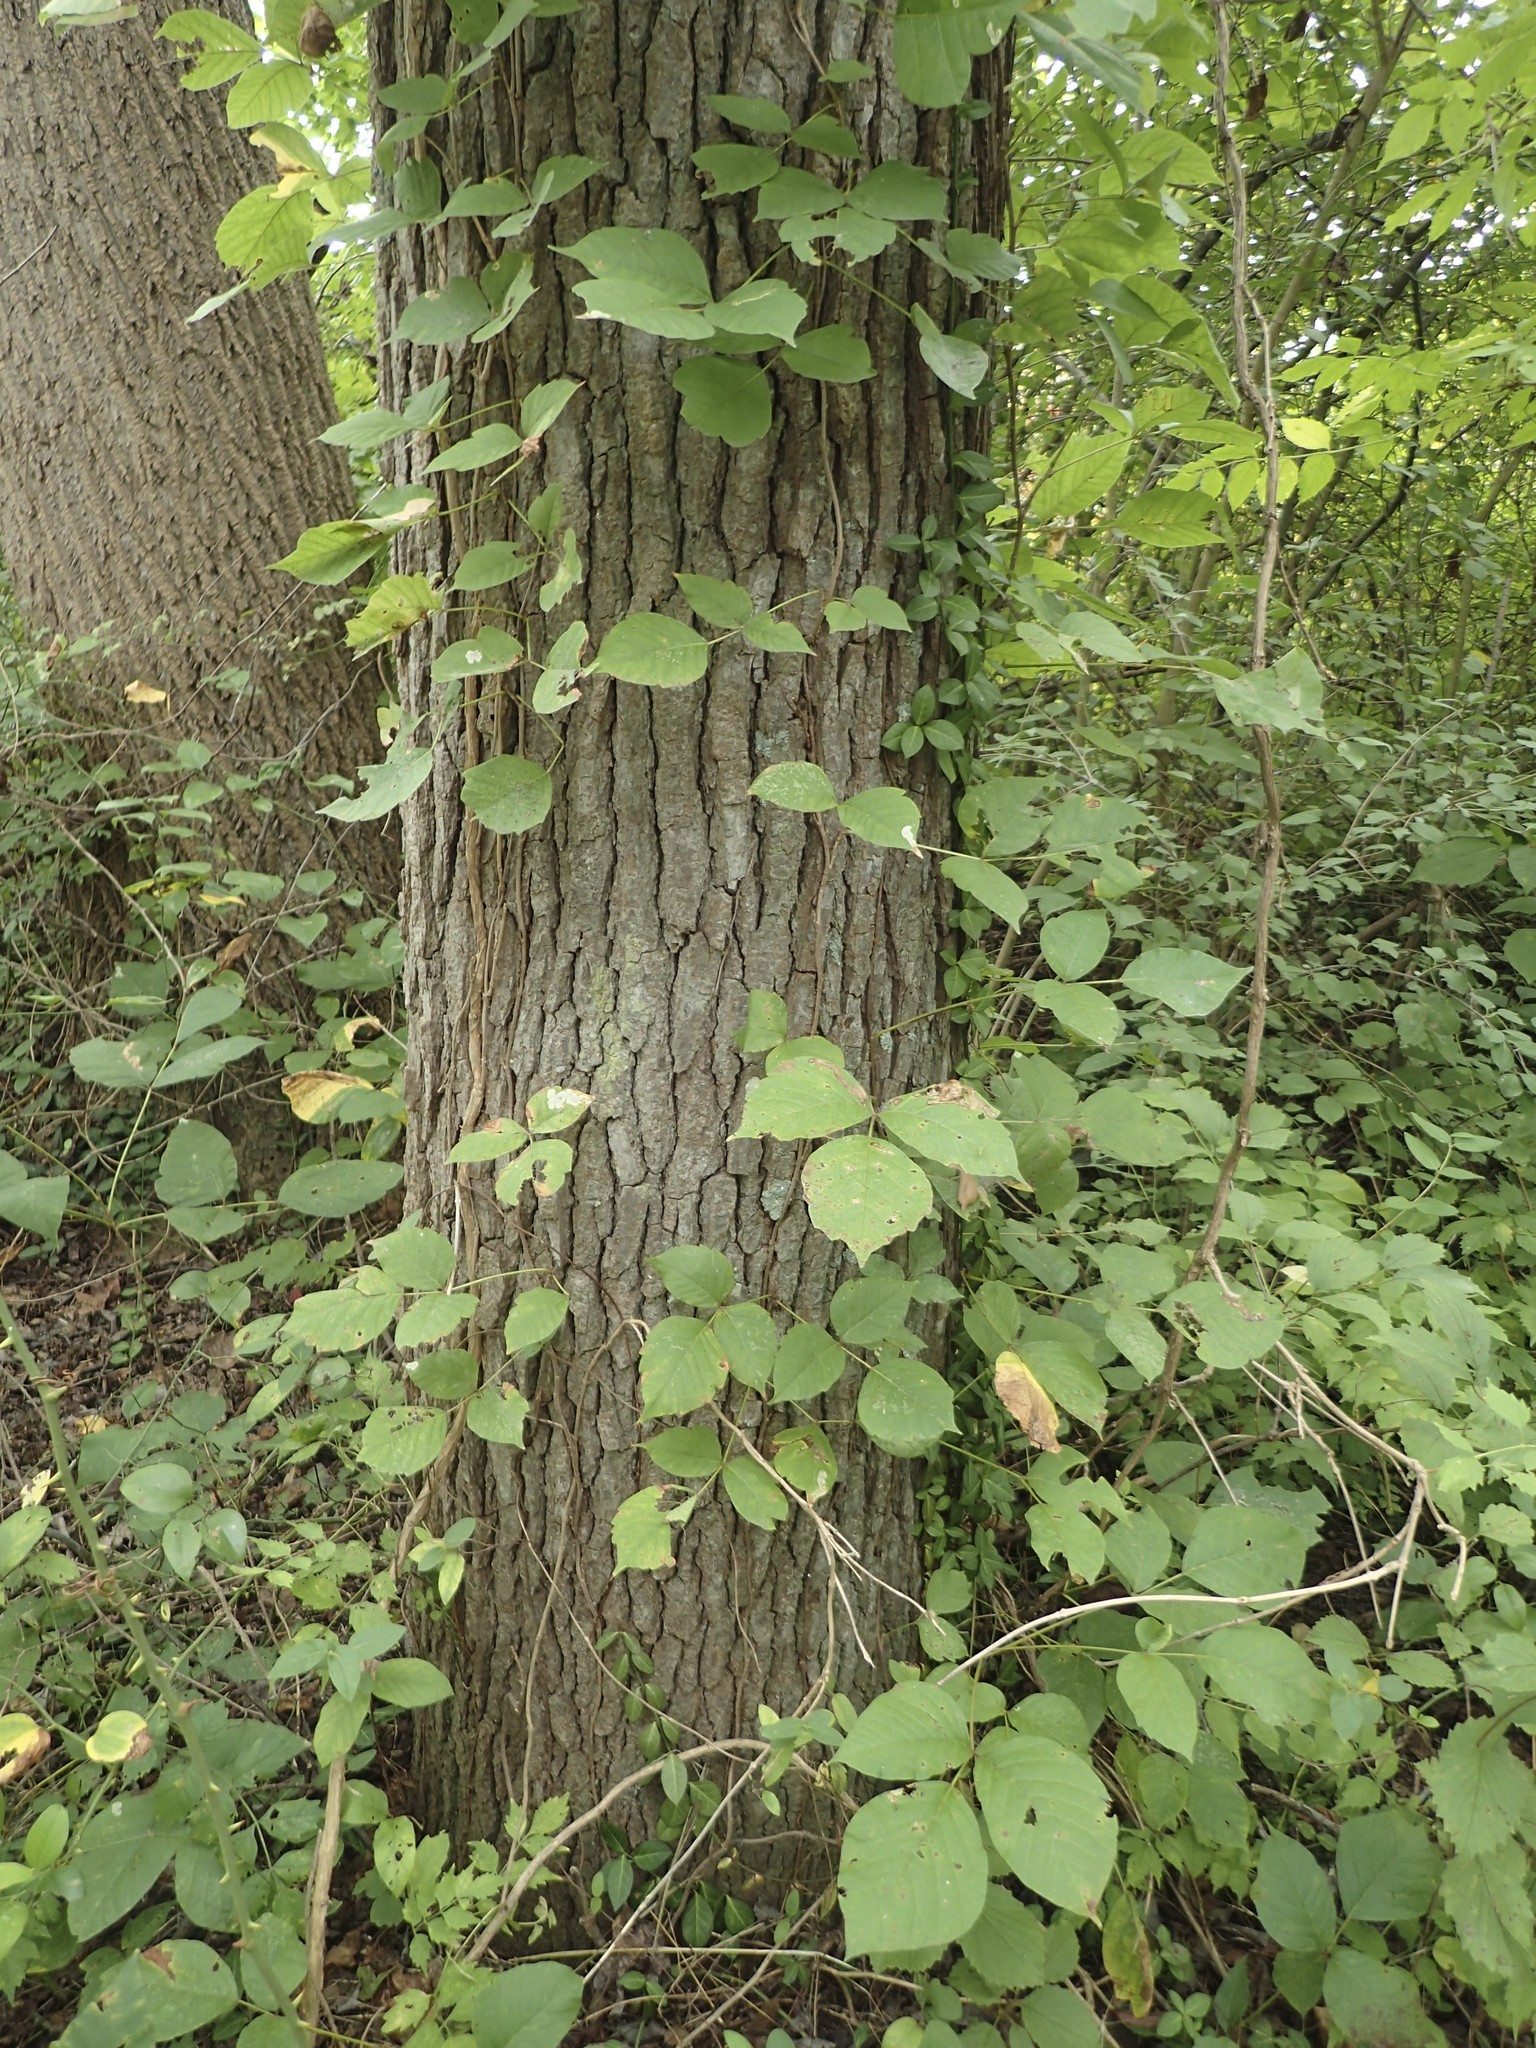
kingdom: Plantae
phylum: Tracheophyta
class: Magnoliopsida
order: Sapindales
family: Anacardiaceae
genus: Toxicodendron
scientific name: Toxicodendron radicans
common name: Poison ivy
